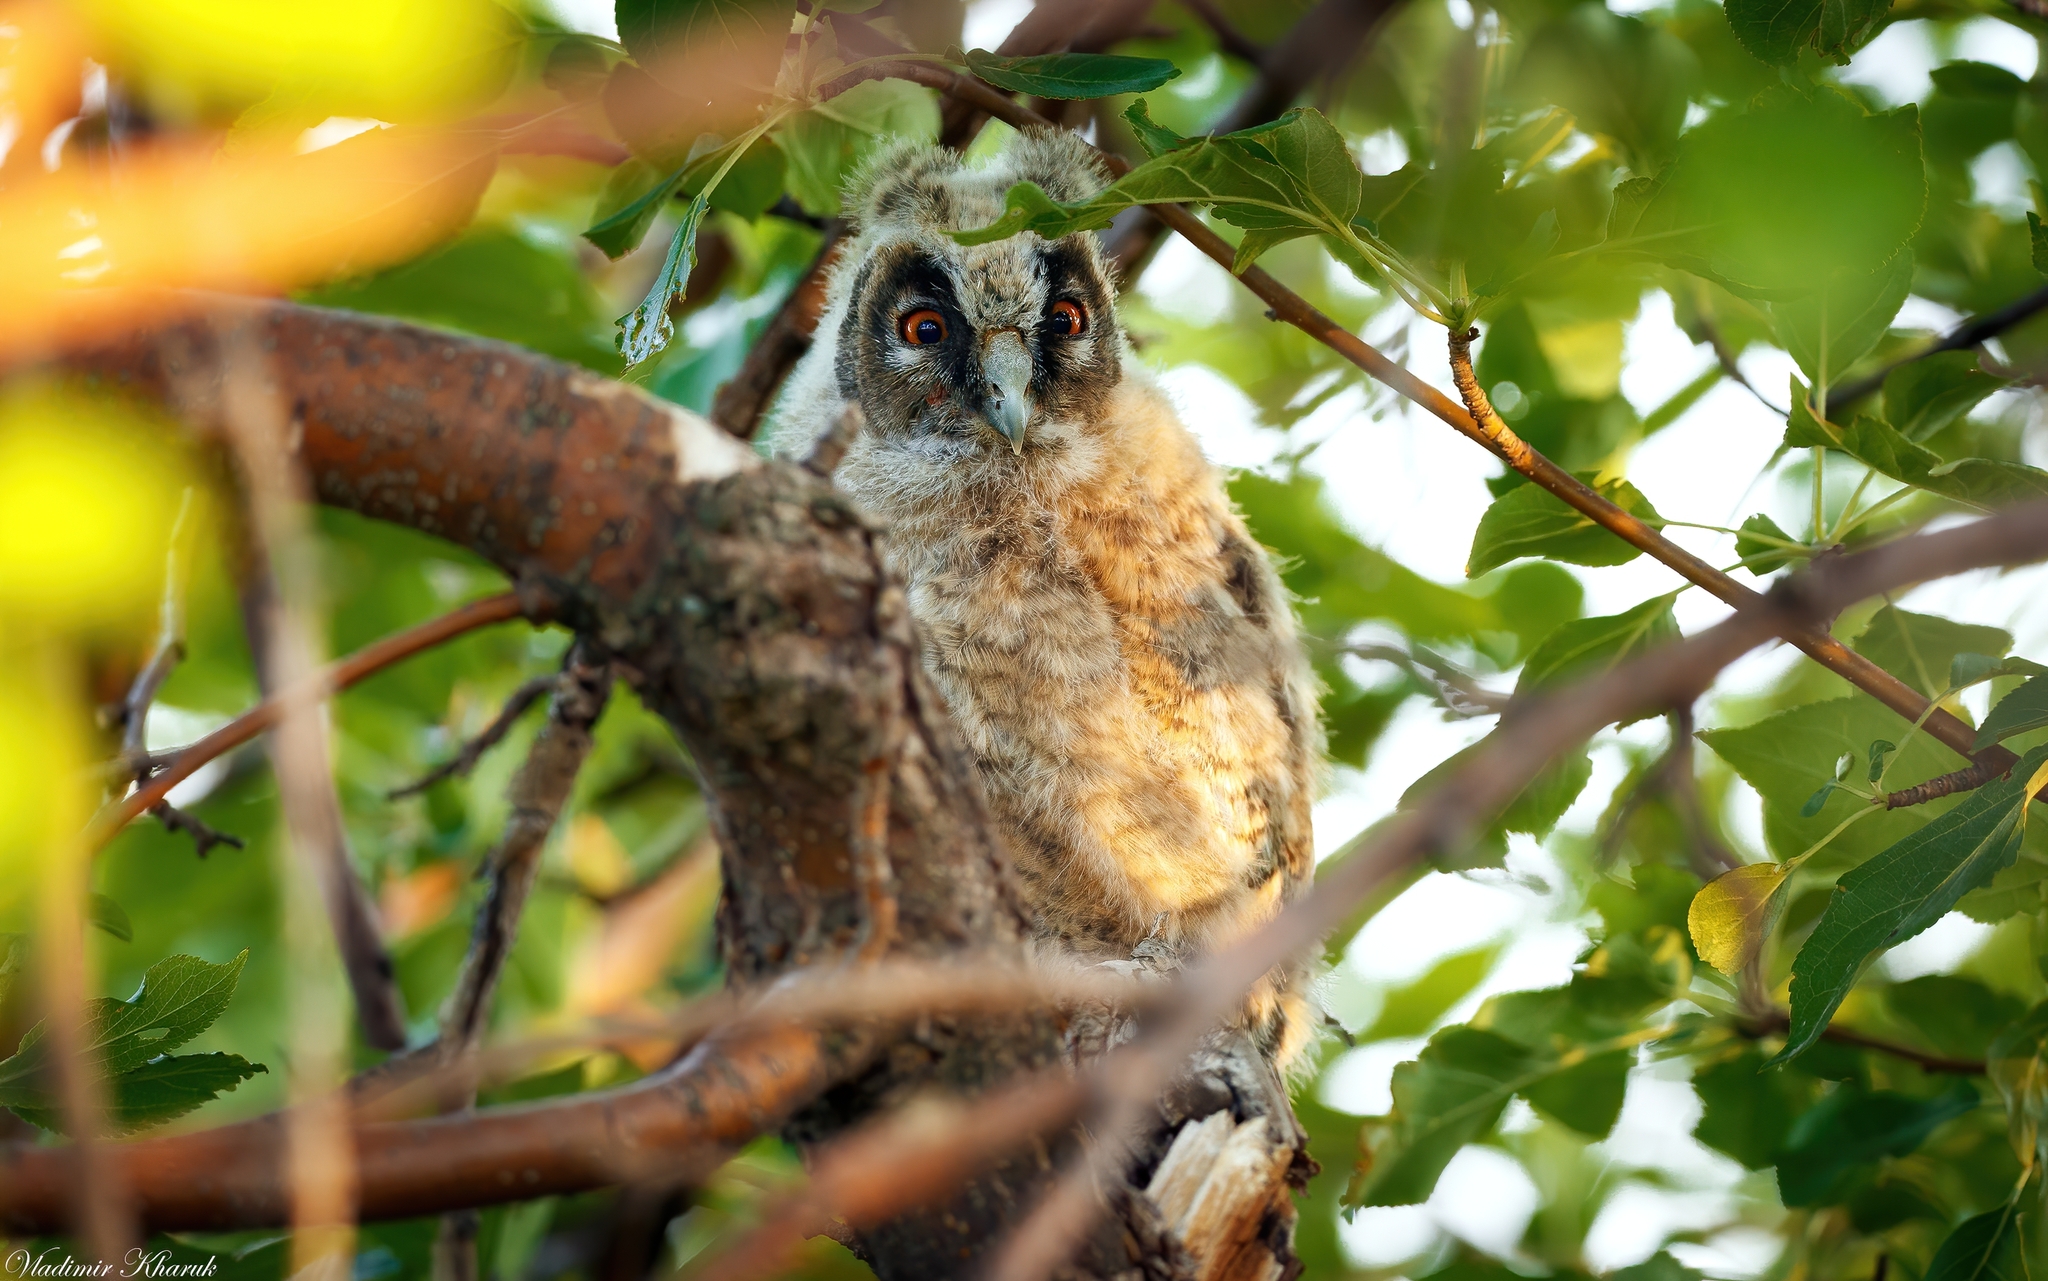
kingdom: Animalia
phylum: Chordata
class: Aves
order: Strigiformes
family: Strigidae
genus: Asio
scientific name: Asio otus
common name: Long-eared owl
